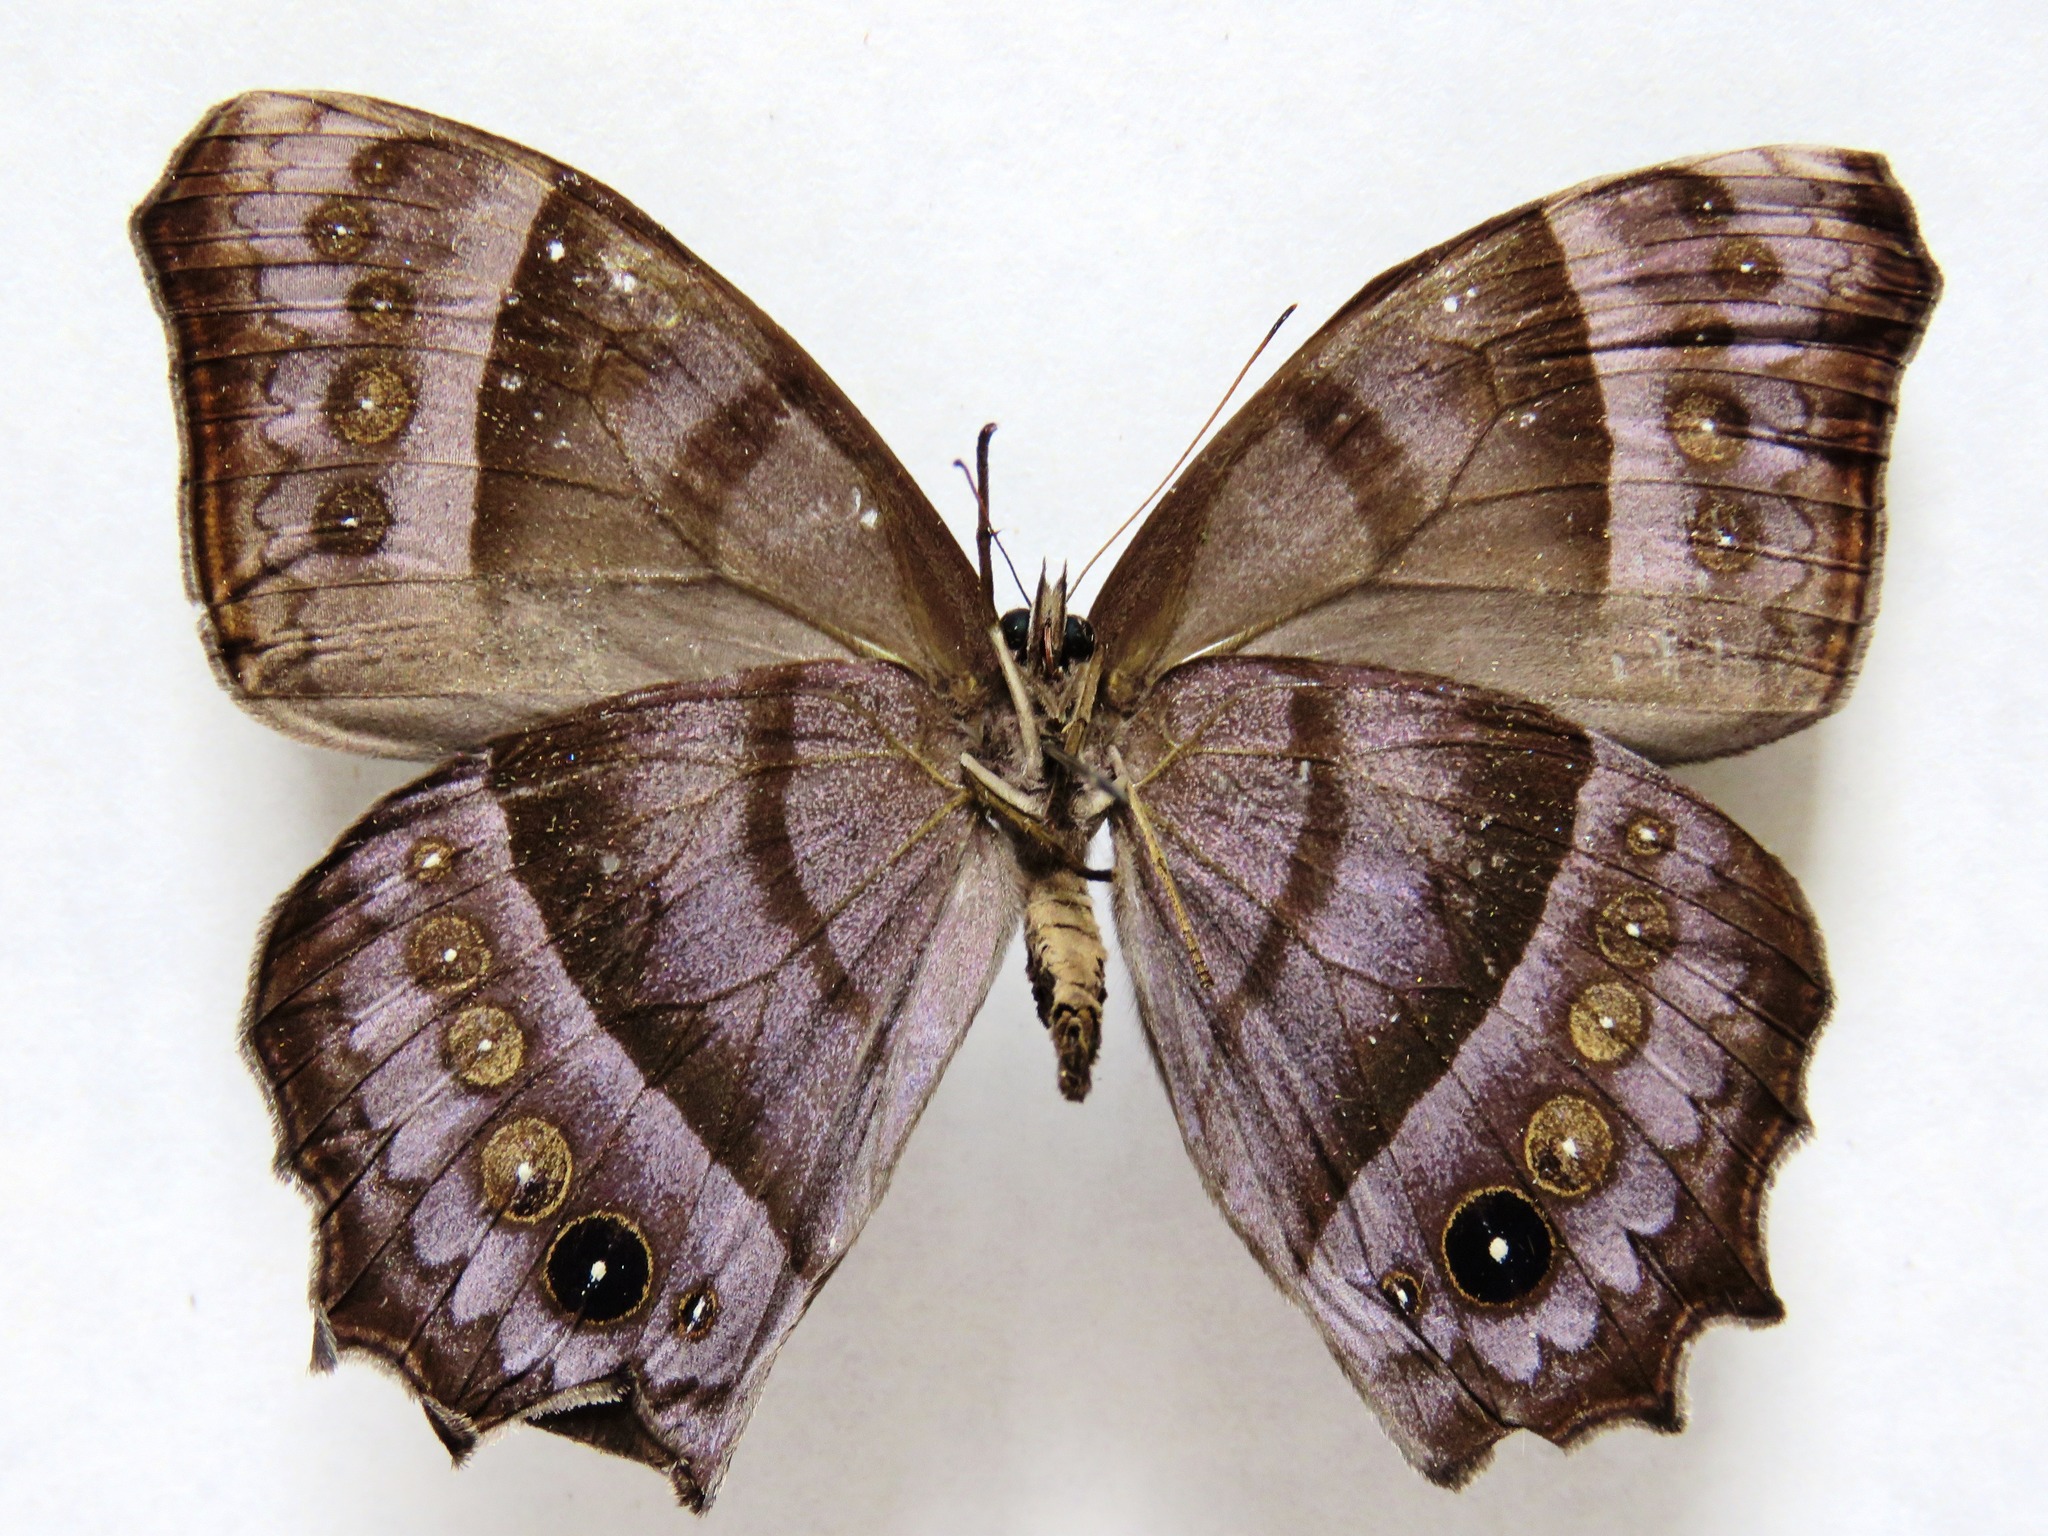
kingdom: Animalia
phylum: Arthropoda
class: Insecta
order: Lepidoptera
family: Nymphalidae
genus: Taygetis
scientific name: Taygetis inconspicua
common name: Inconspicuous satyr
